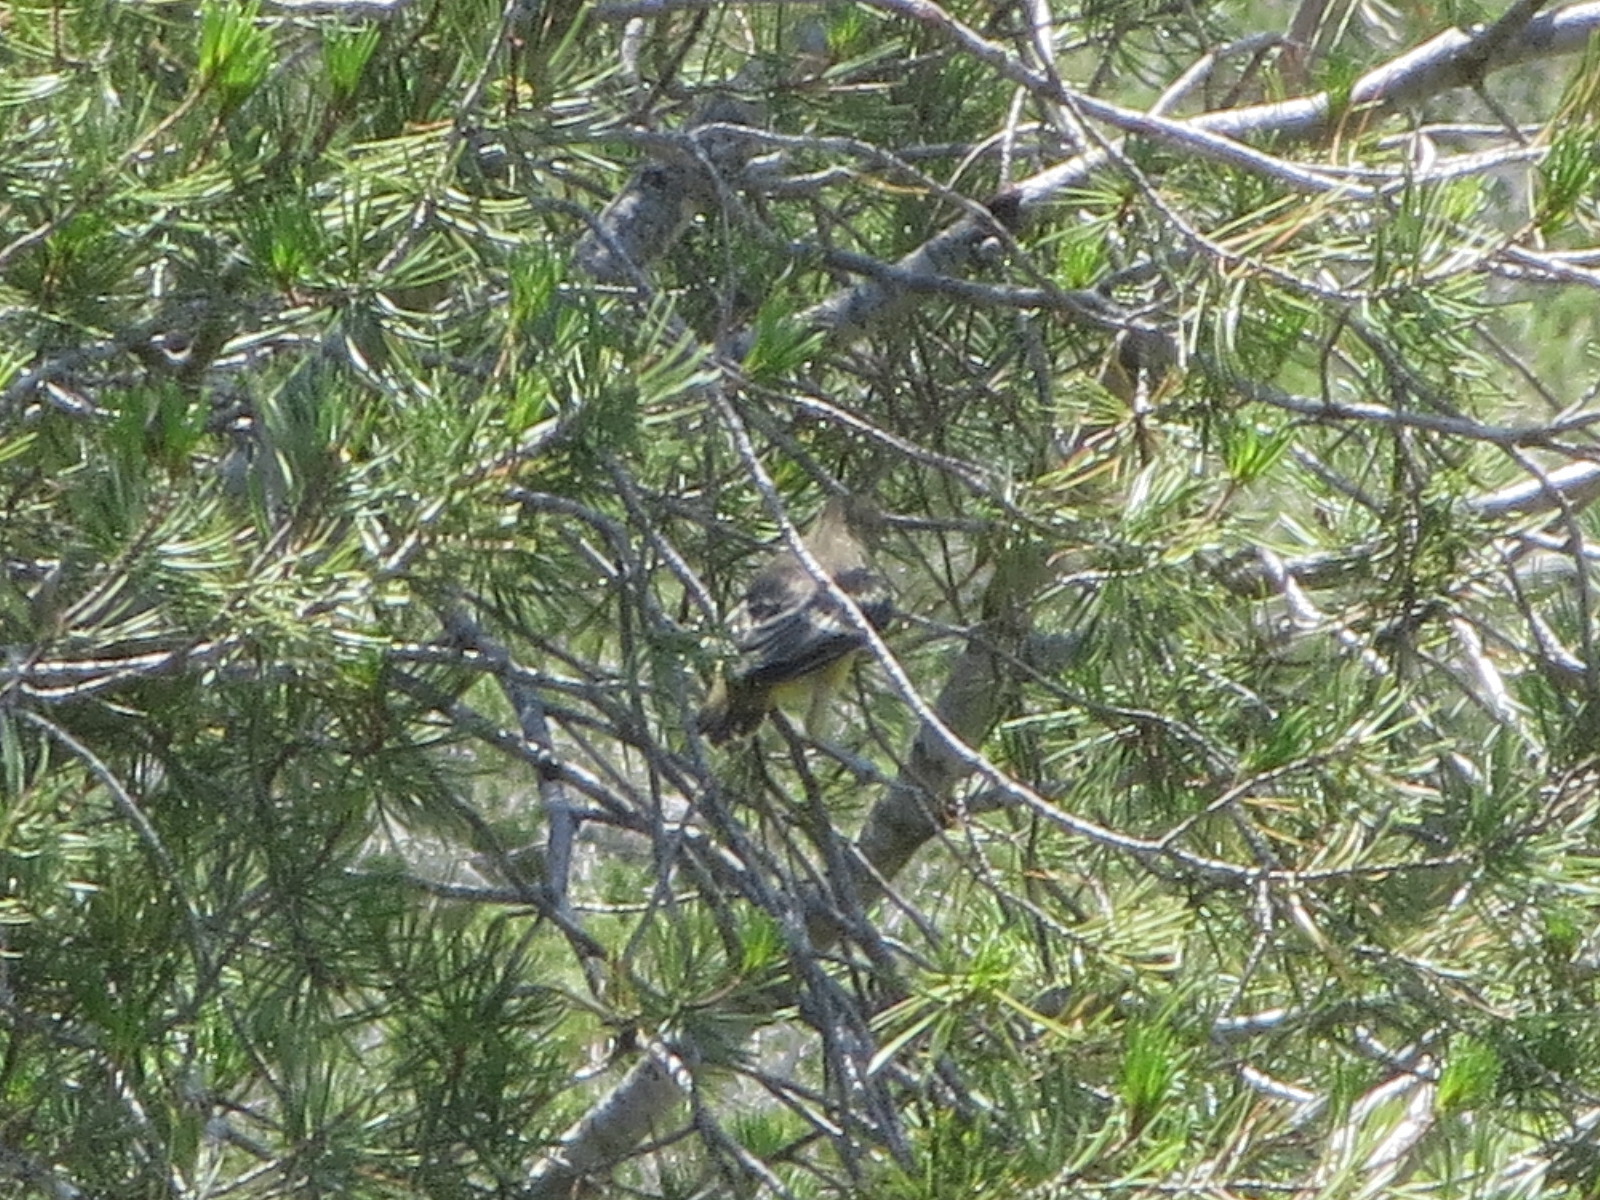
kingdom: Animalia
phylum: Chordata
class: Aves
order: Passeriformes
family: Icteridae
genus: Icterus
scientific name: Icterus parisorum
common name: Scott's oriole
